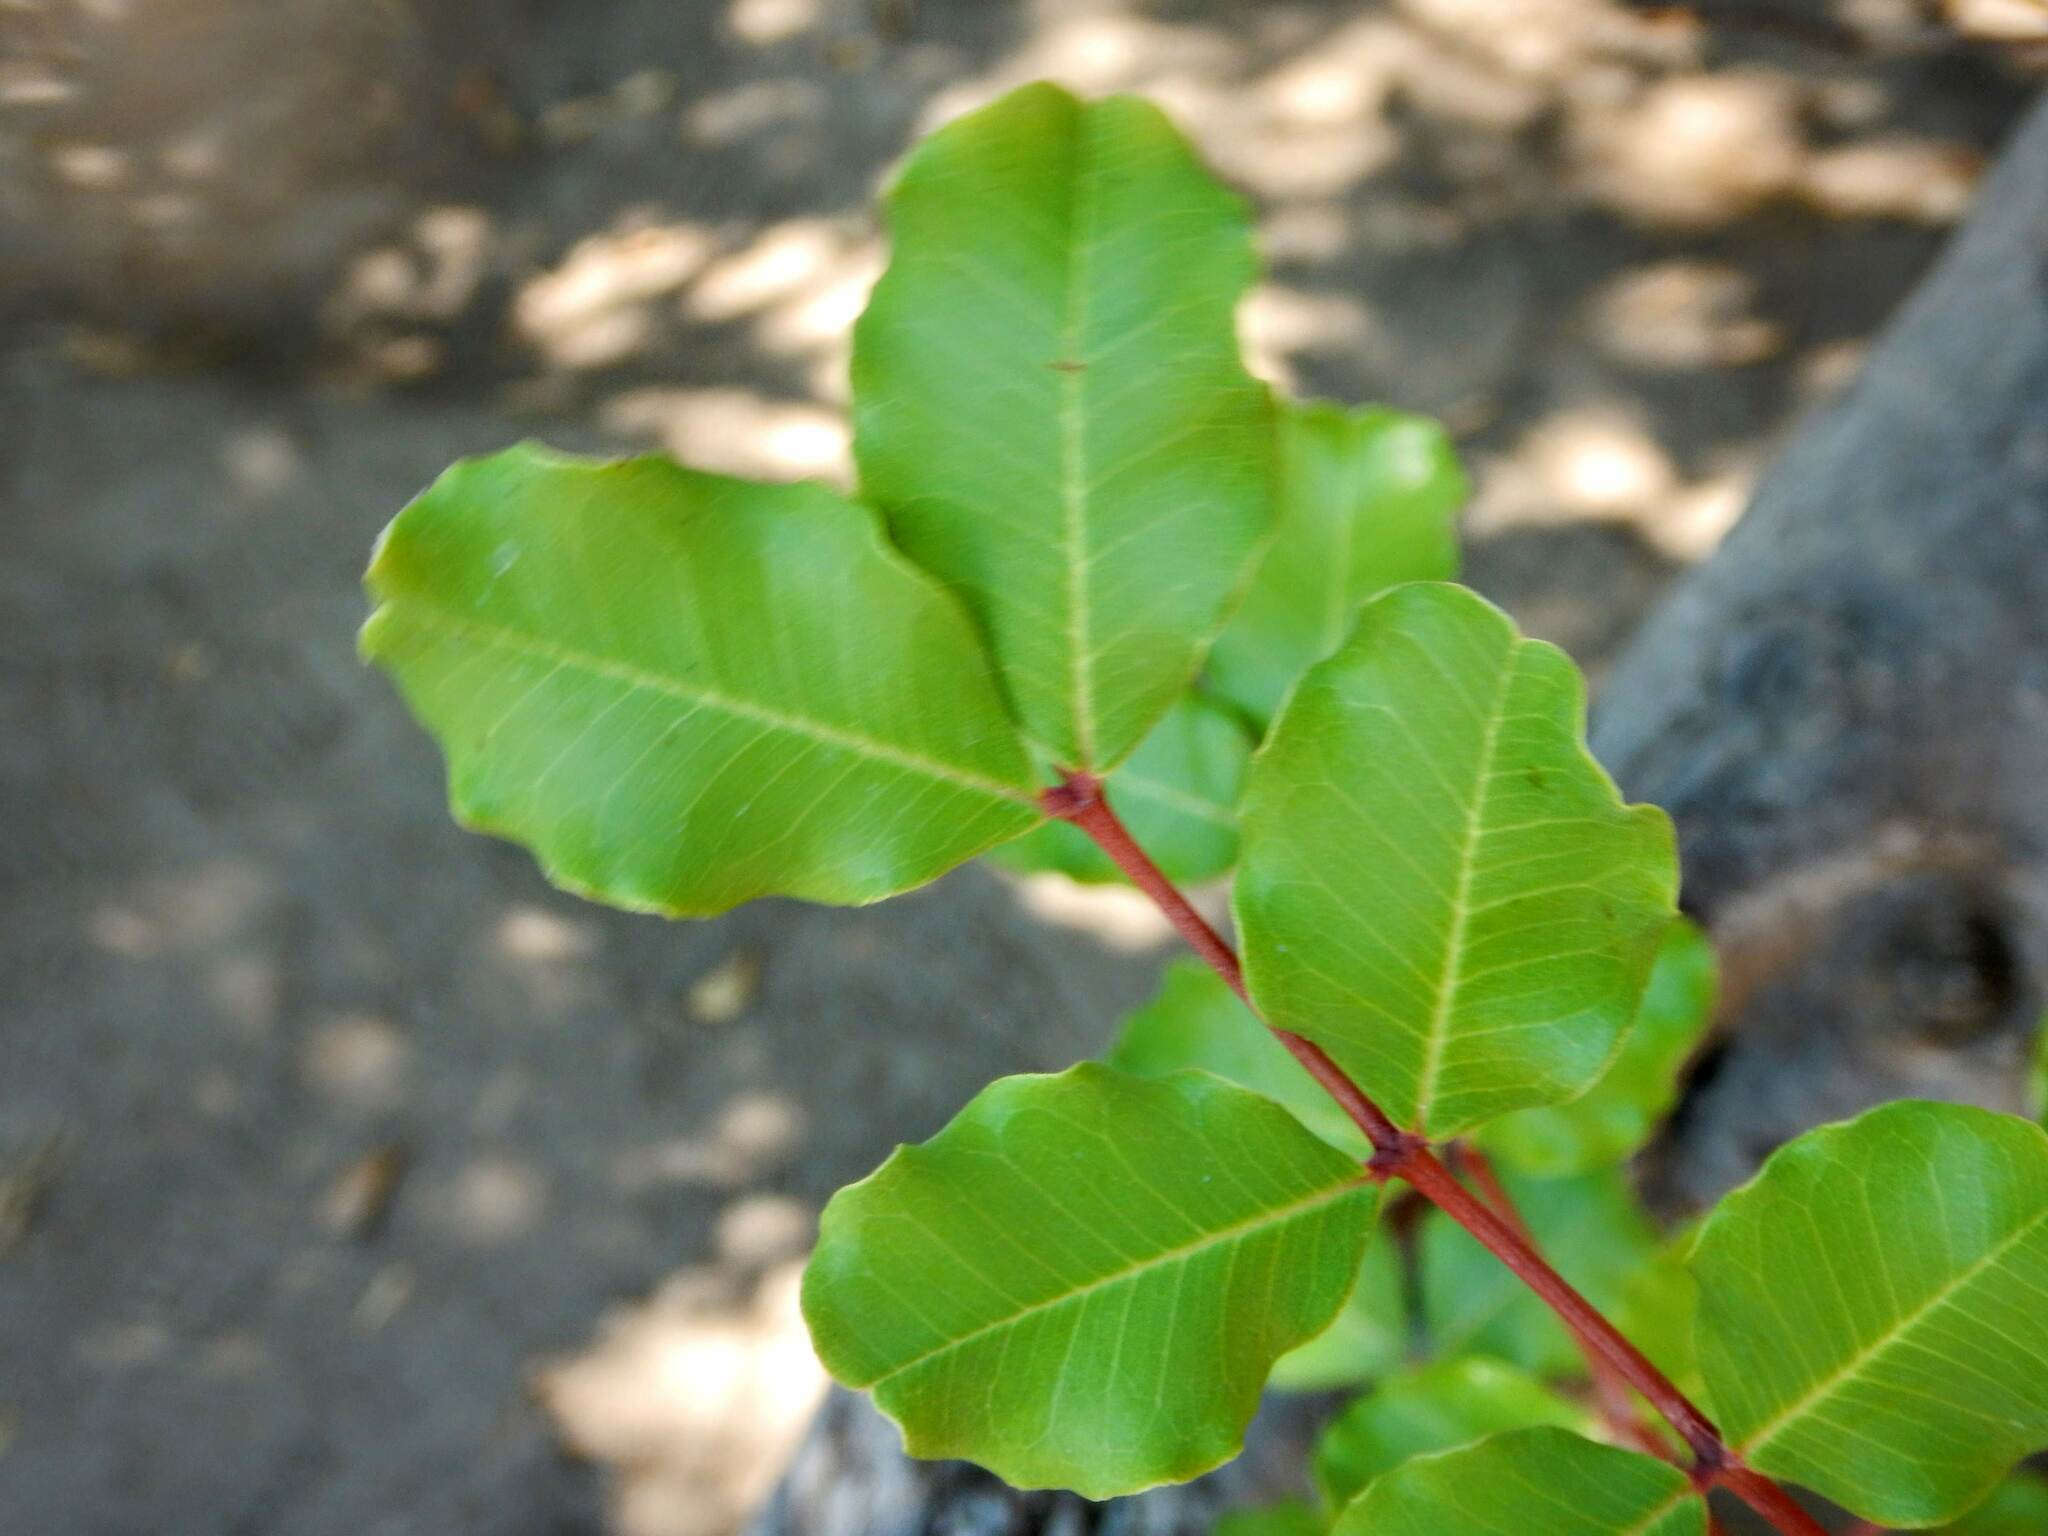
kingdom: Plantae
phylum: Tracheophyta
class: Magnoliopsida
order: Fabales
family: Fabaceae
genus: Ceratonia
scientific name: Ceratonia siliqua
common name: Carob
